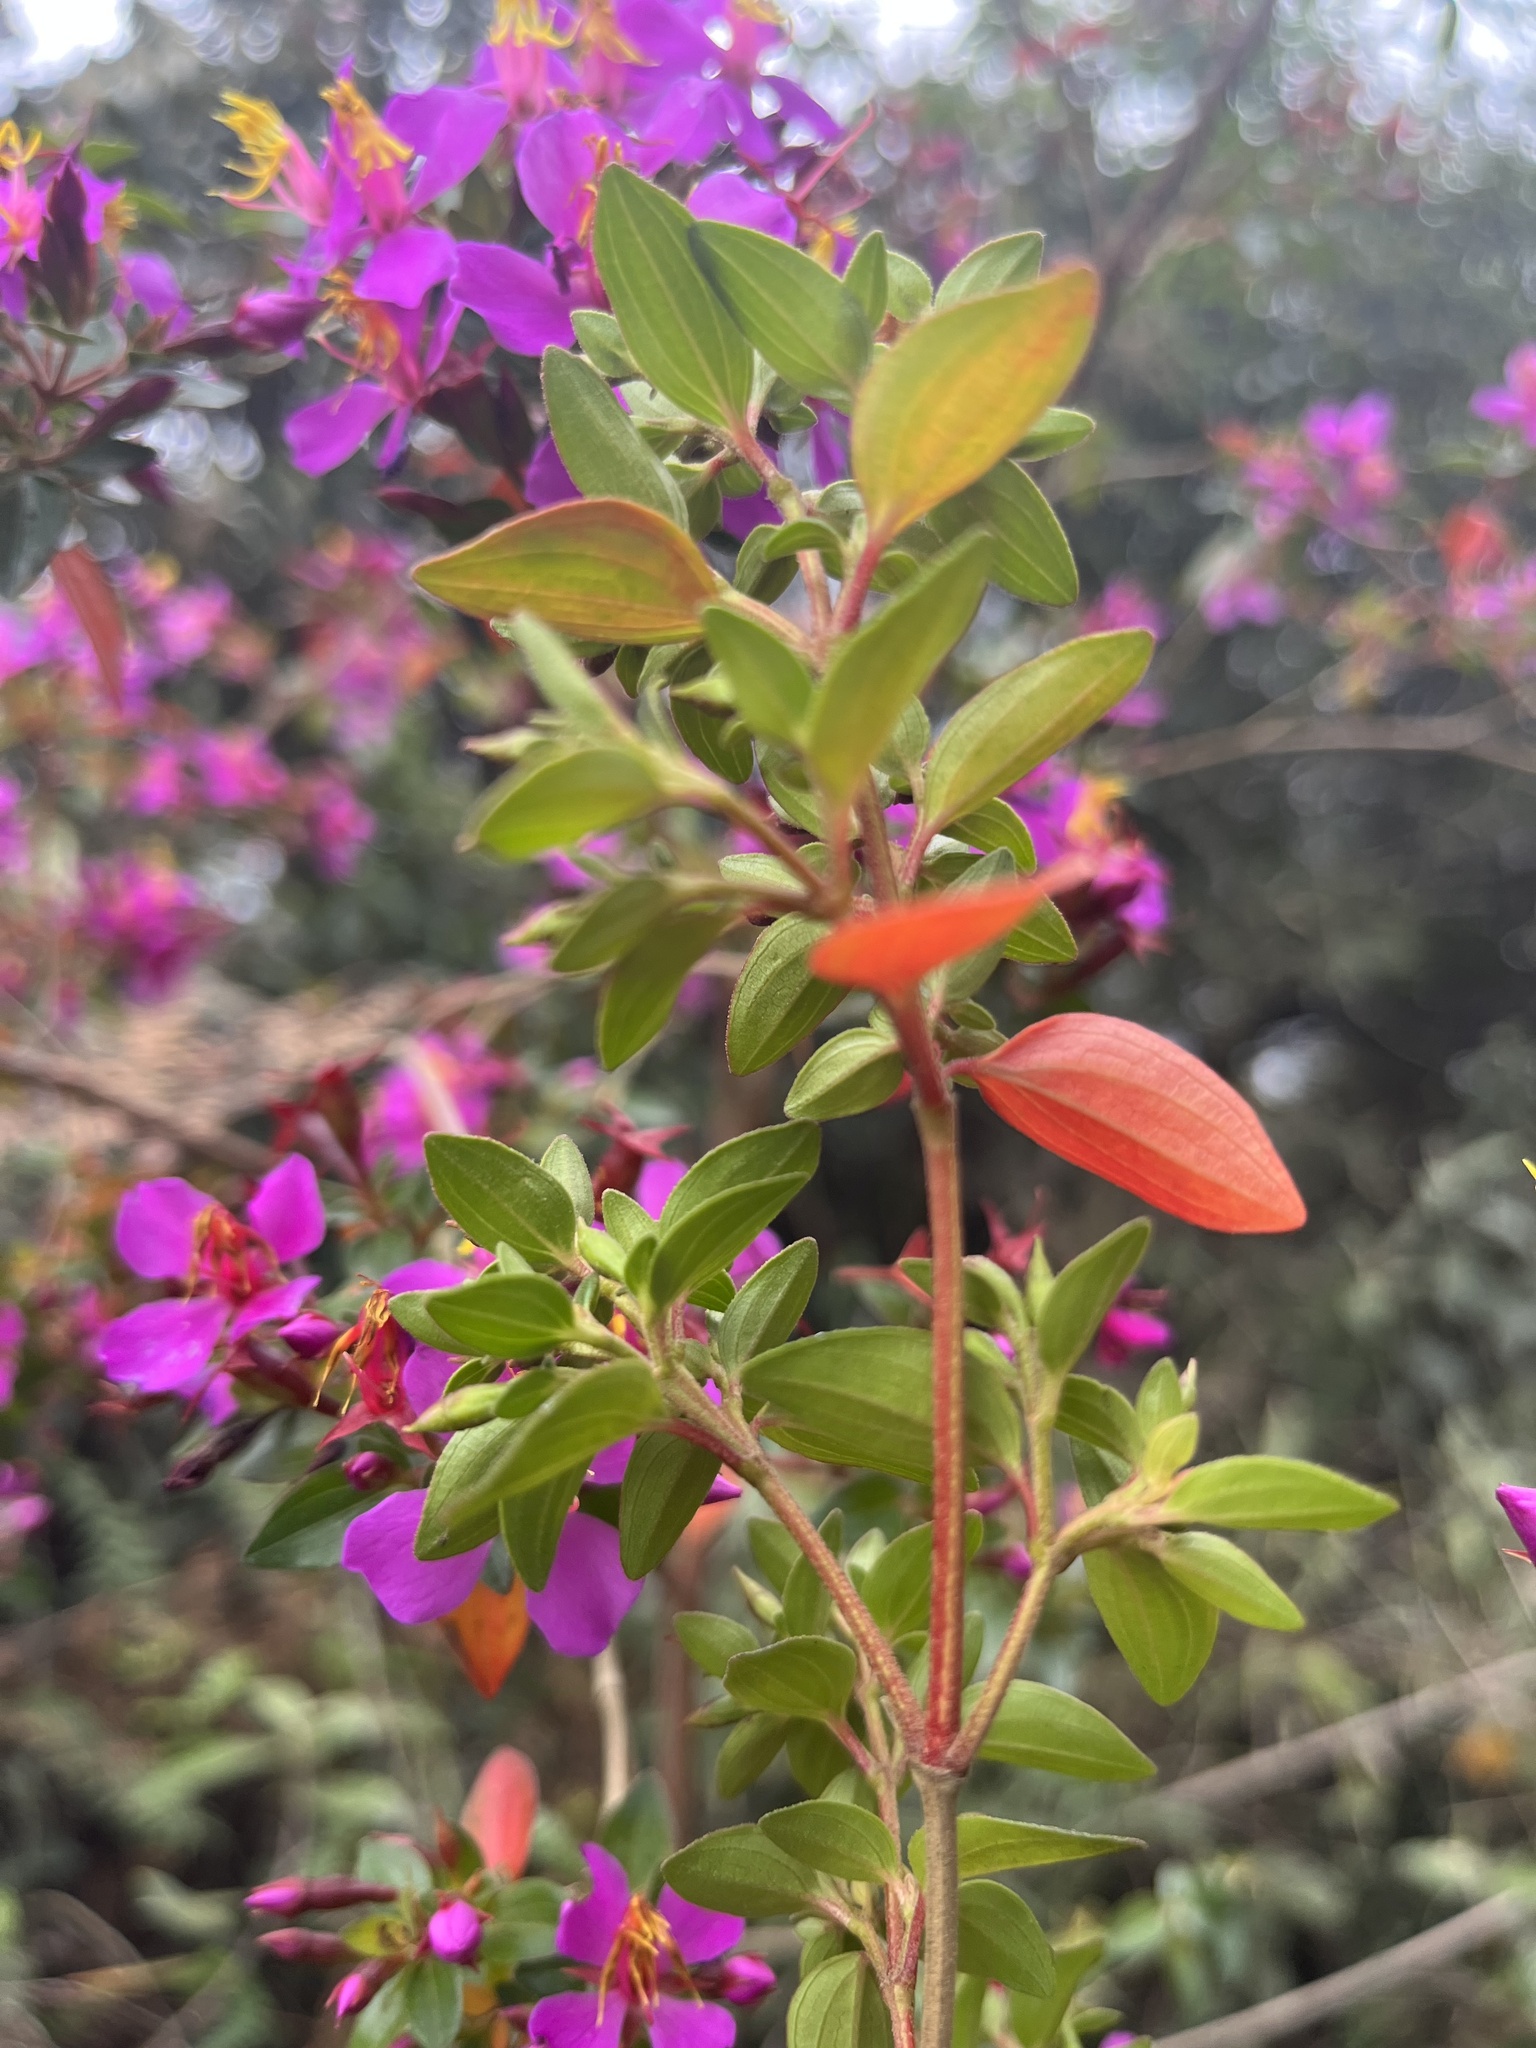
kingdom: Plantae
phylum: Tracheophyta
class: Magnoliopsida
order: Myrtales
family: Melastomataceae
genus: Monochaetum
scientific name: Monochaetum myrtoideum
